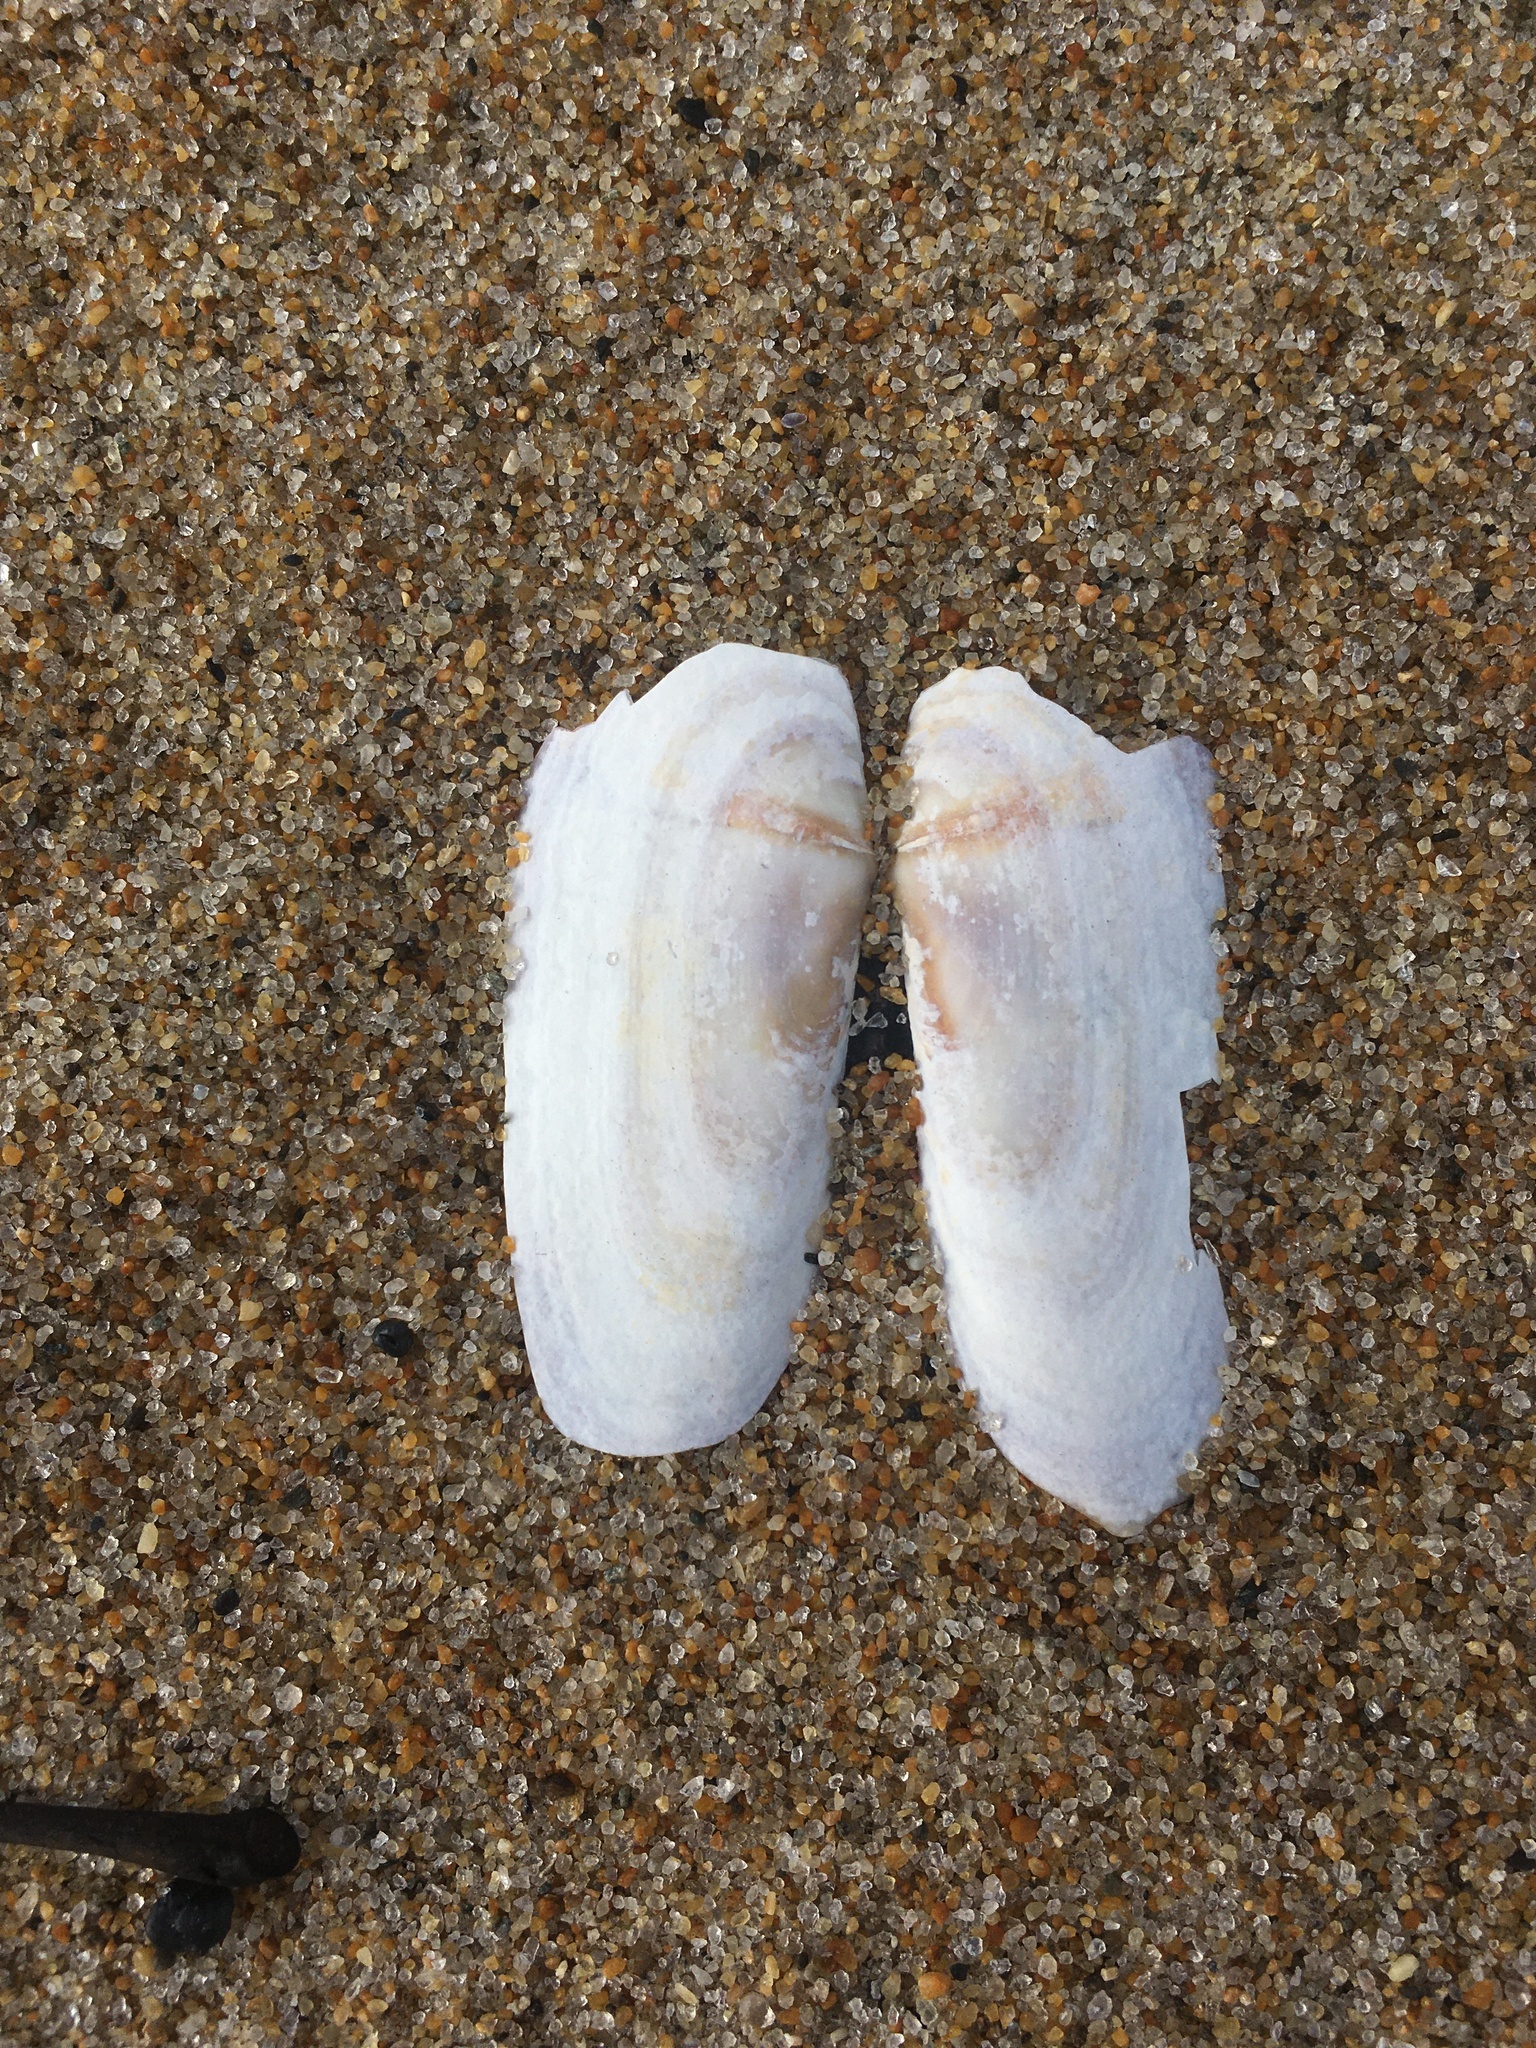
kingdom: Animalia
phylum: Mollusca
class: Bivalvia
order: Adapedonta
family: Pharidae
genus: Siliqua
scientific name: Siliqua costata
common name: Atlantic razor
